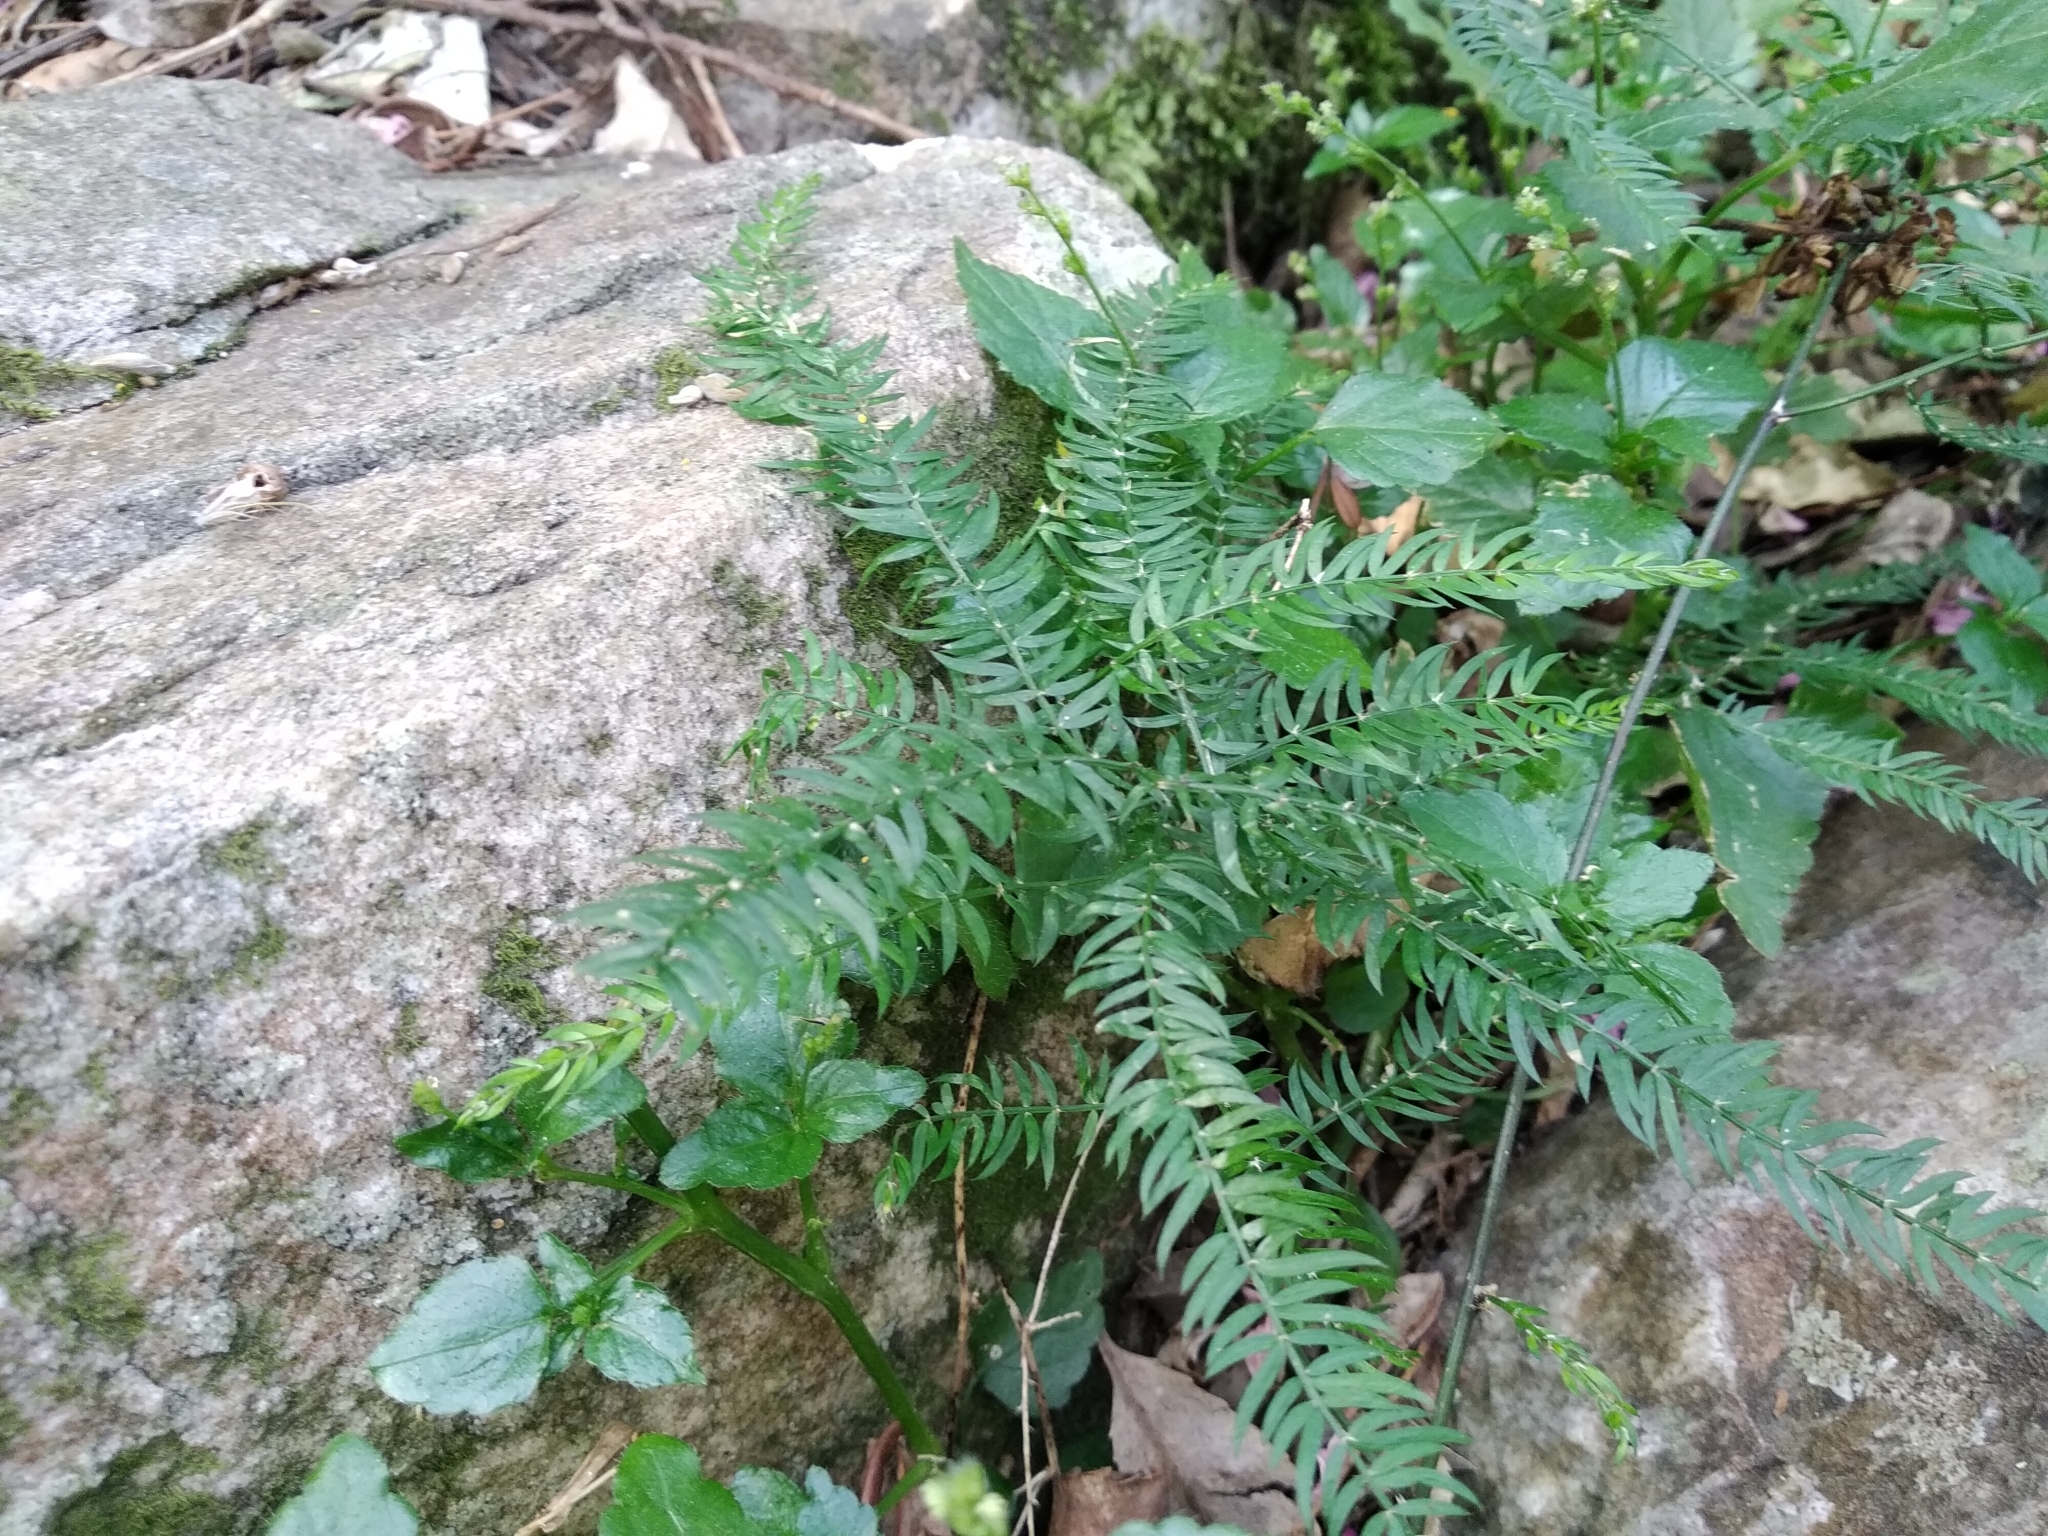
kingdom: Plantae
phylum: Tracheophyta
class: Liliopsida
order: Asparagales
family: Asparagaceae
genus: Asparagus
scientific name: Asparagus scandens
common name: Asparagus-fern
